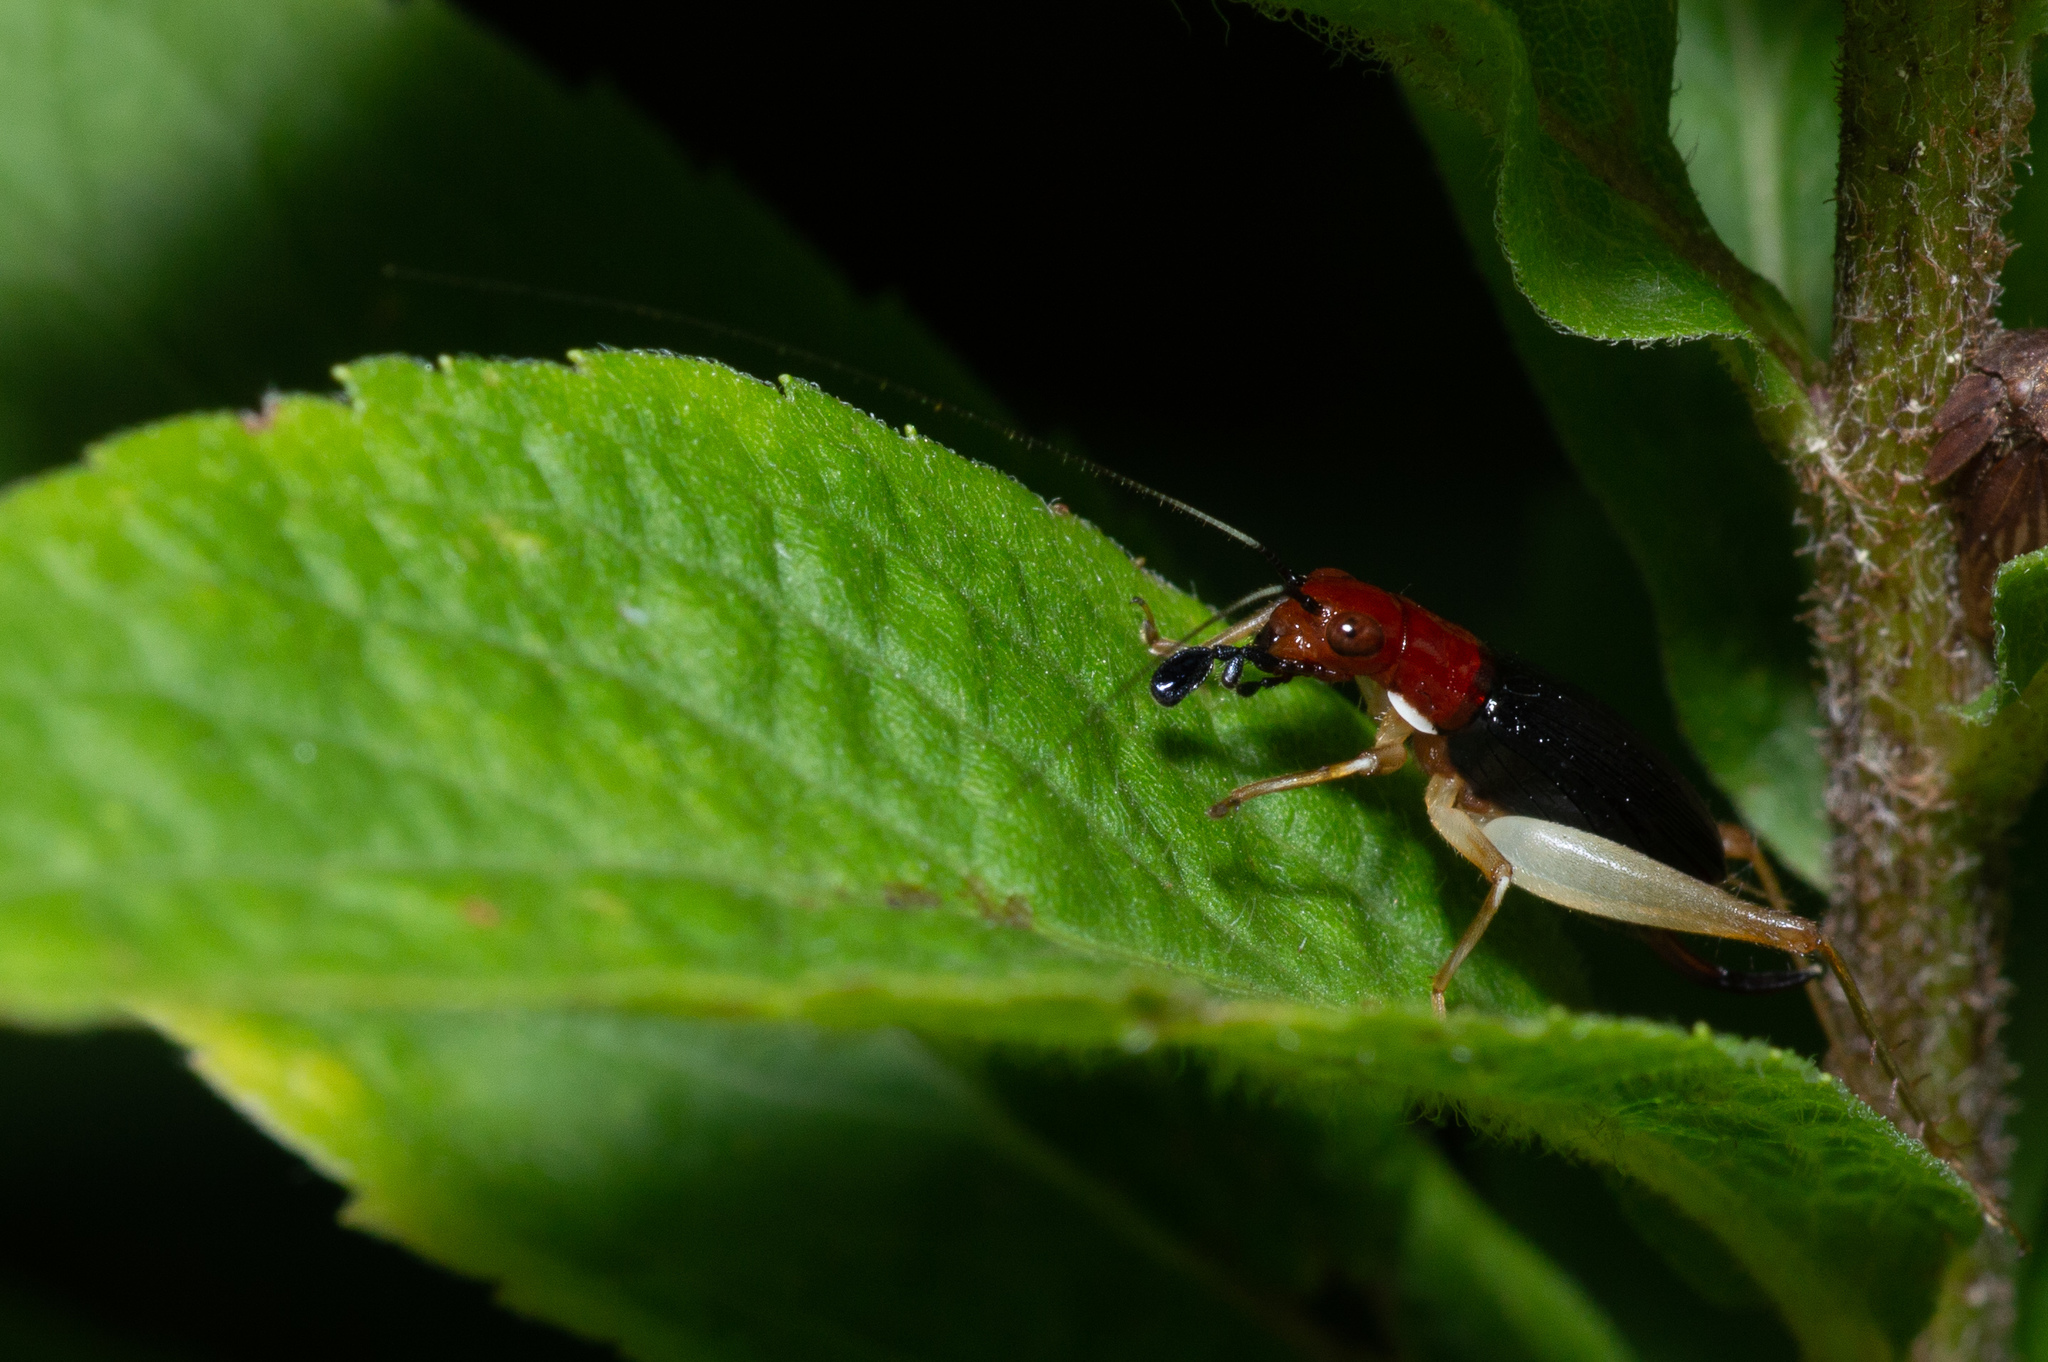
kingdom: Animalia
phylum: Arthropoda
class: Insecta
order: Orthoptera
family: Trigonidiidae
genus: Phyllopalpus
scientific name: Phyllopalpus pulchellus
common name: Handsome trig
